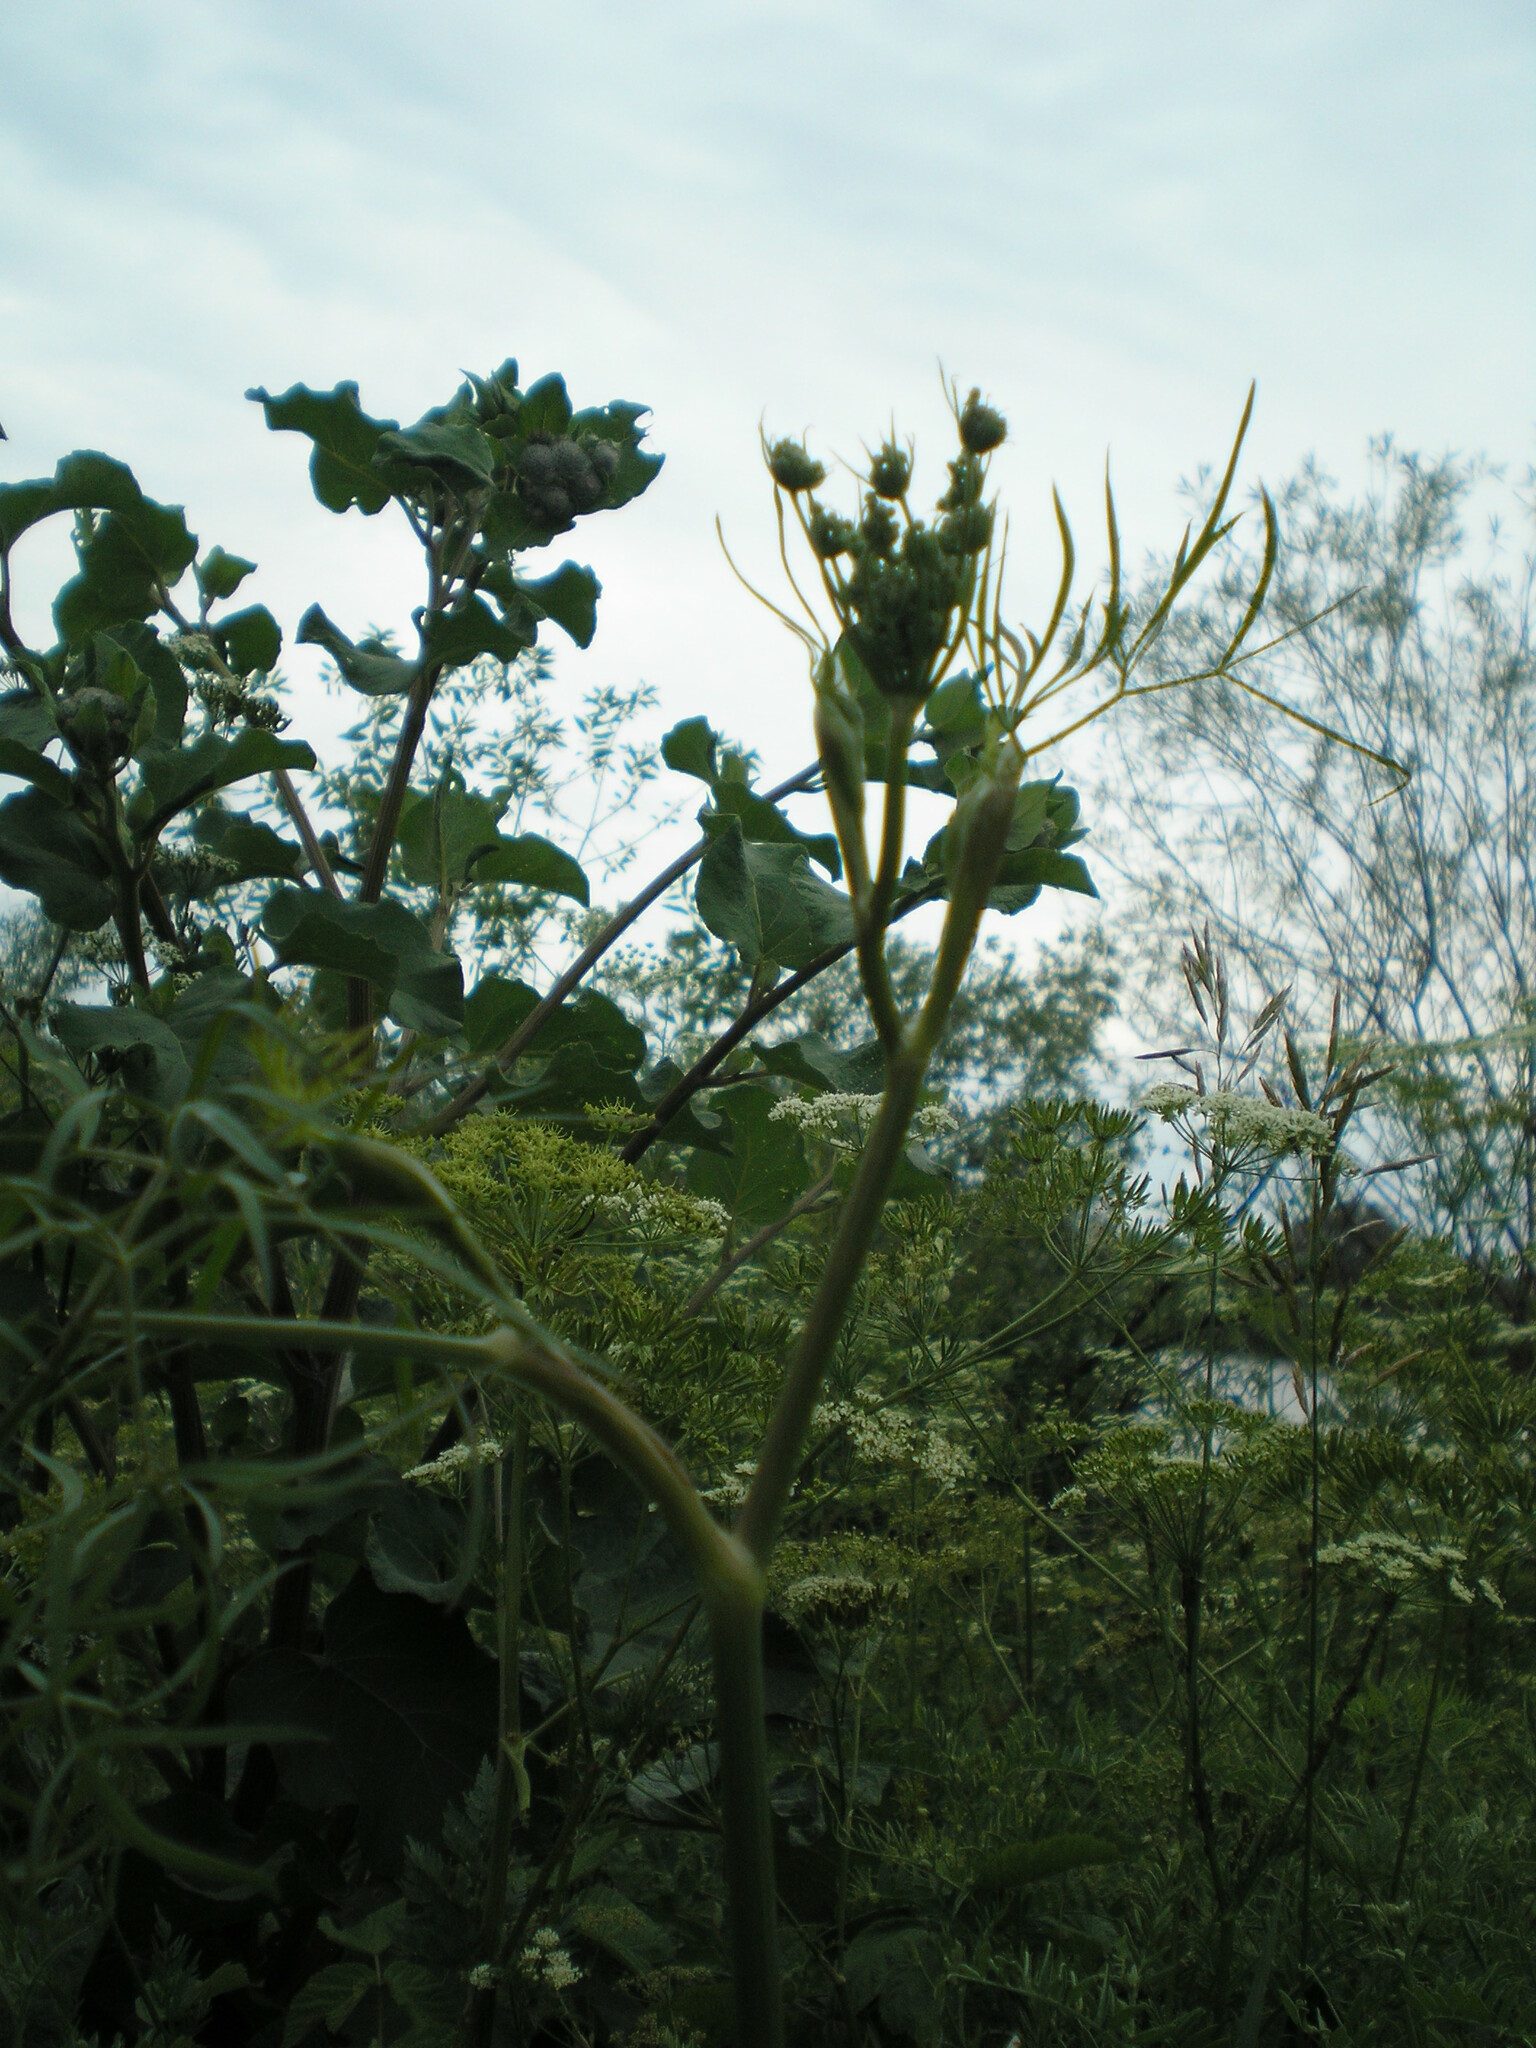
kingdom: Plantae
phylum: Tracheophyta
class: Magnoliopsida
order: Apiales
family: Apiaceae
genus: Cenolophium
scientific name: Cenolophium fischeri
